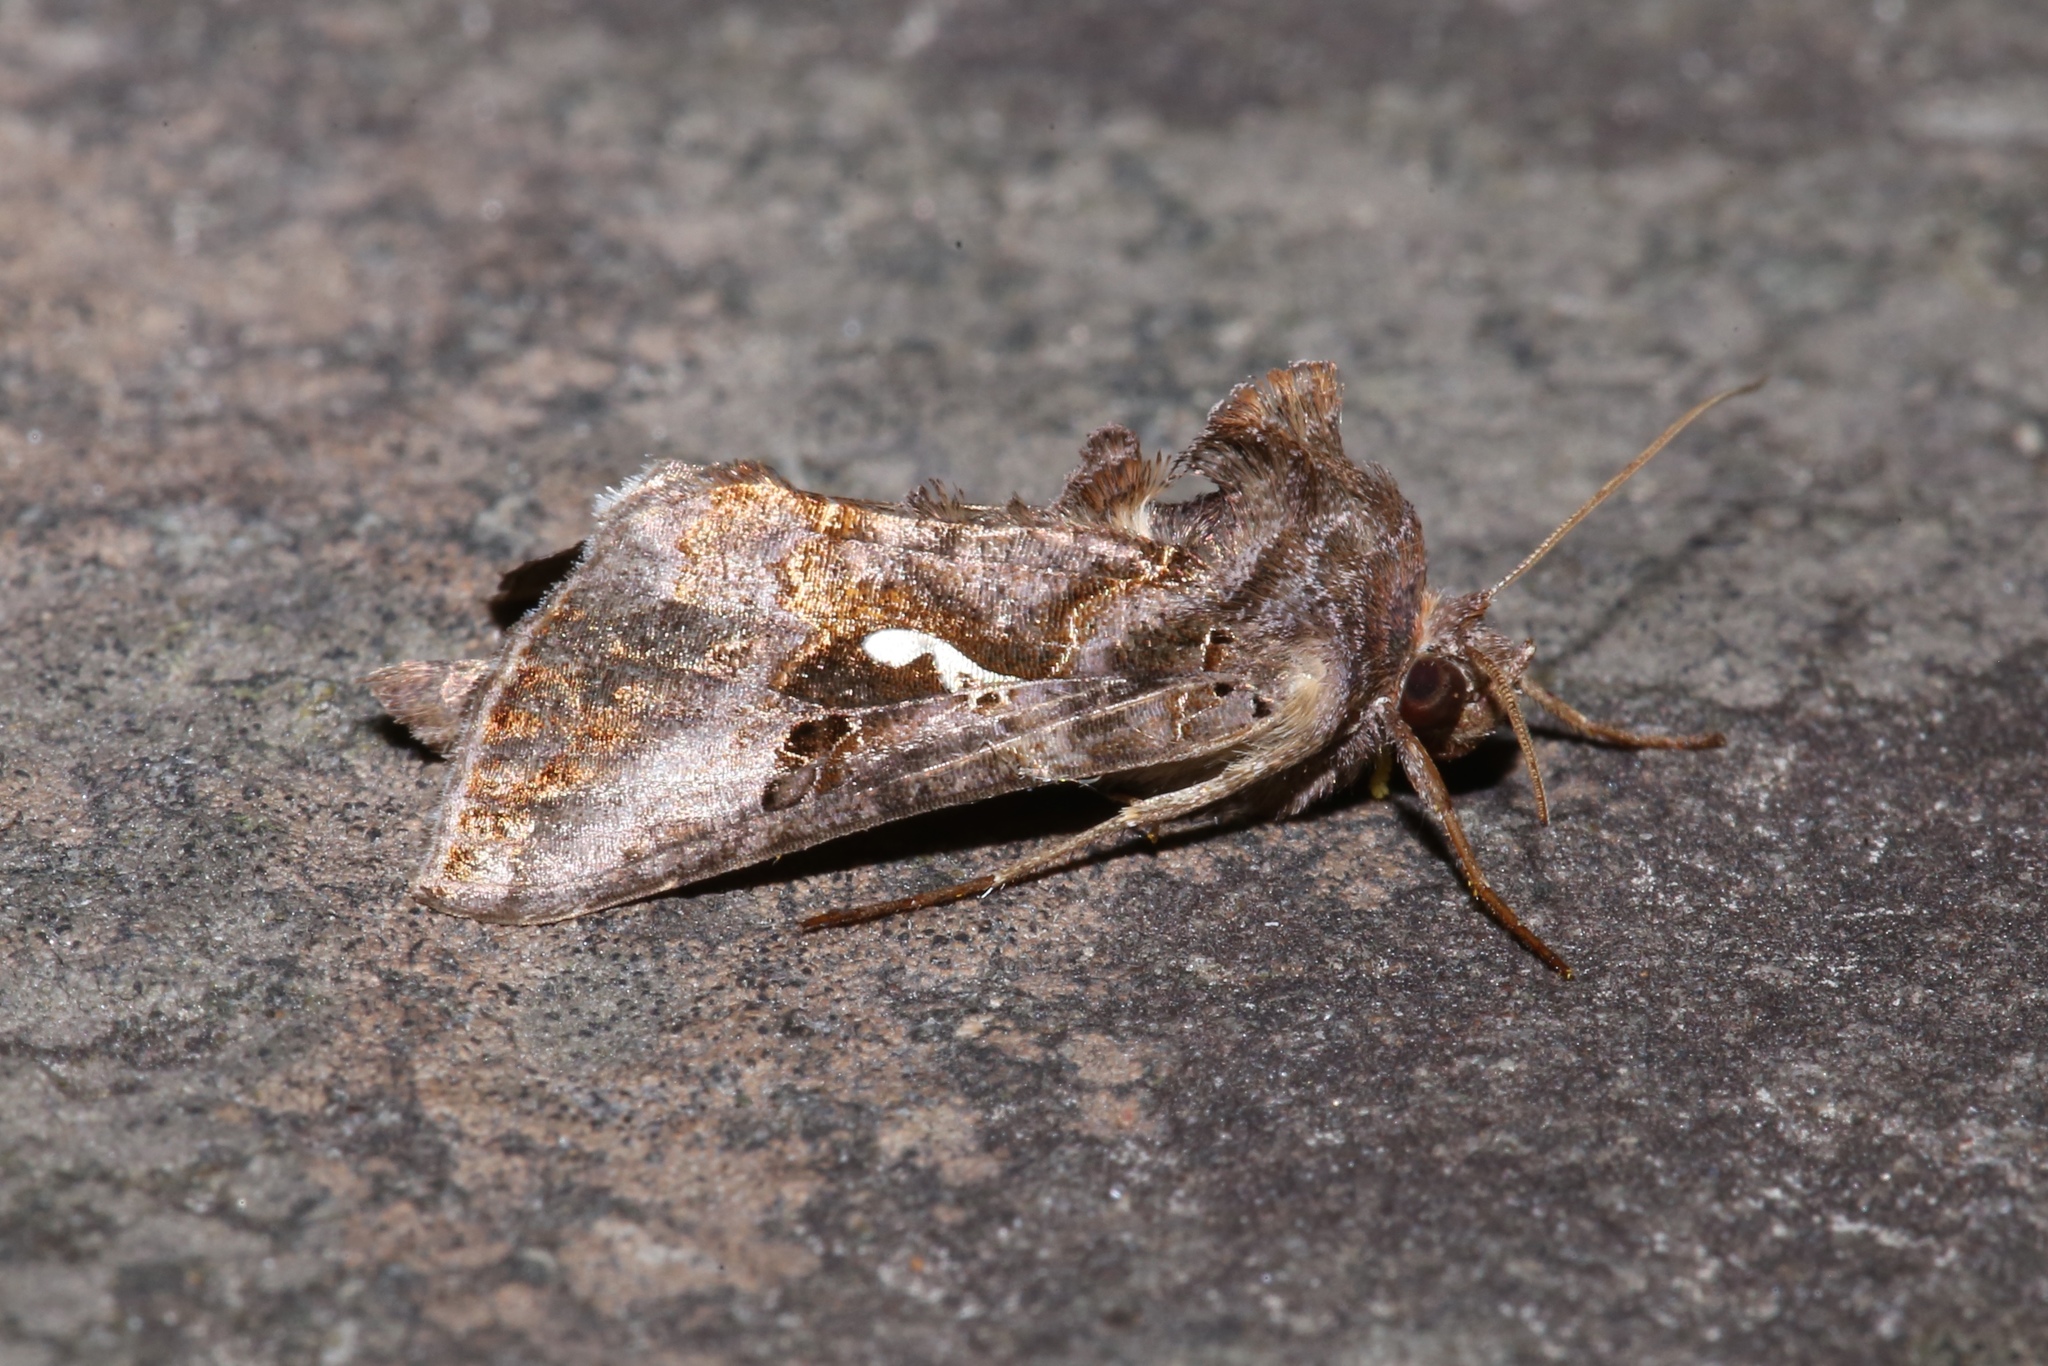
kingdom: Animalia
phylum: Arthropoda
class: Insecta
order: Lepidoptera
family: Noctuidae
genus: Autographa
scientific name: Autographa precationis
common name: Common looper moth
